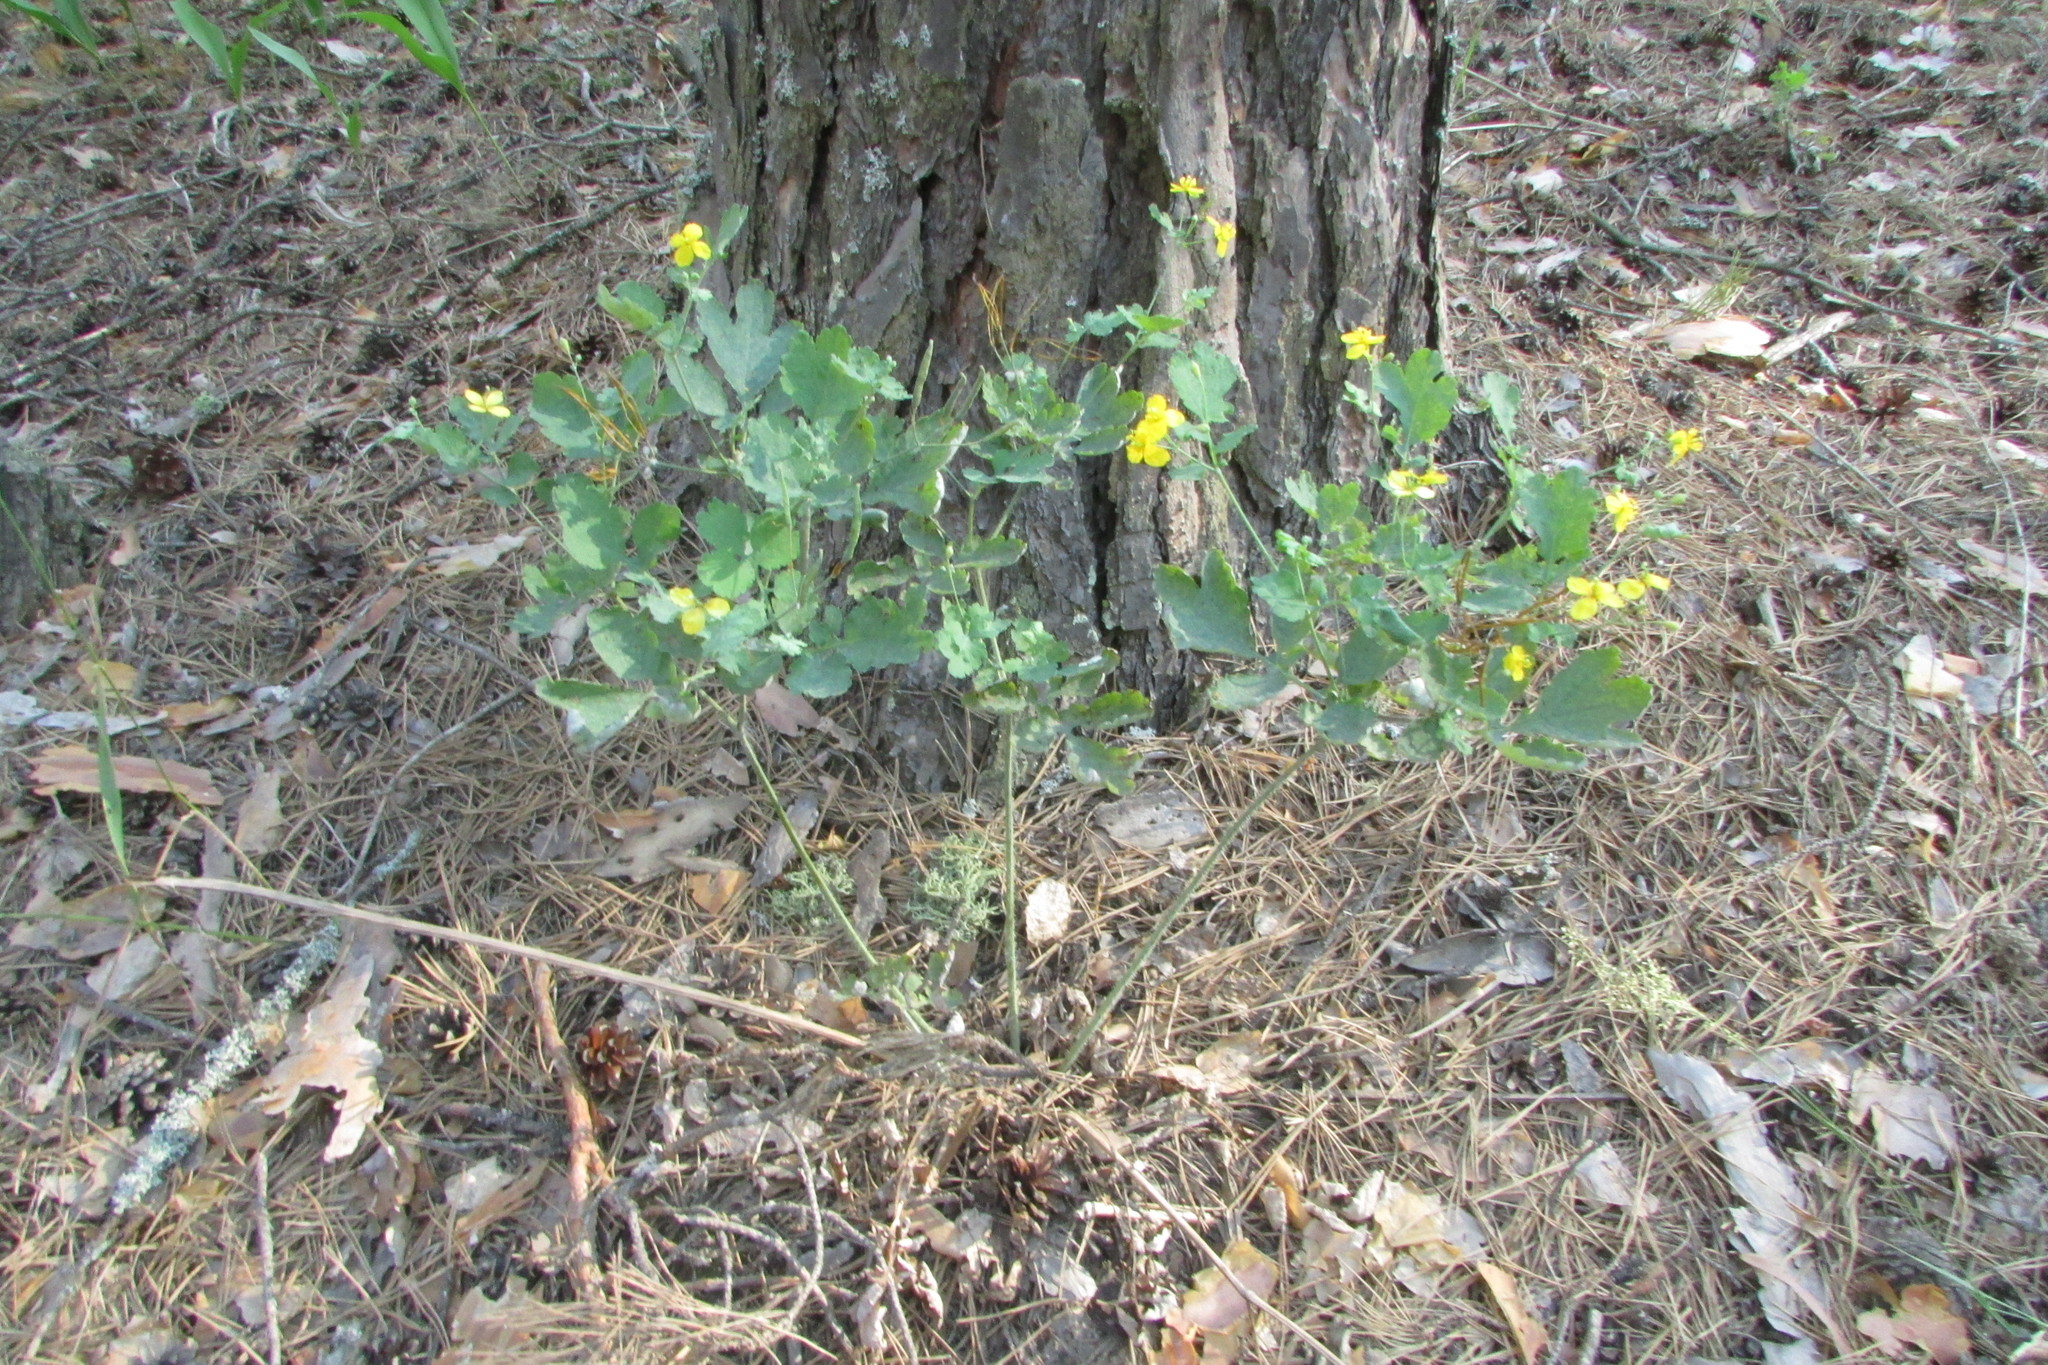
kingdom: Plantae
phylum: Tracheophyta
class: Magnoliopsida
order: Ranunculales
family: Papaveraceae
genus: Chelidonium
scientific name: Chelidonium majus
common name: Greater celandine
